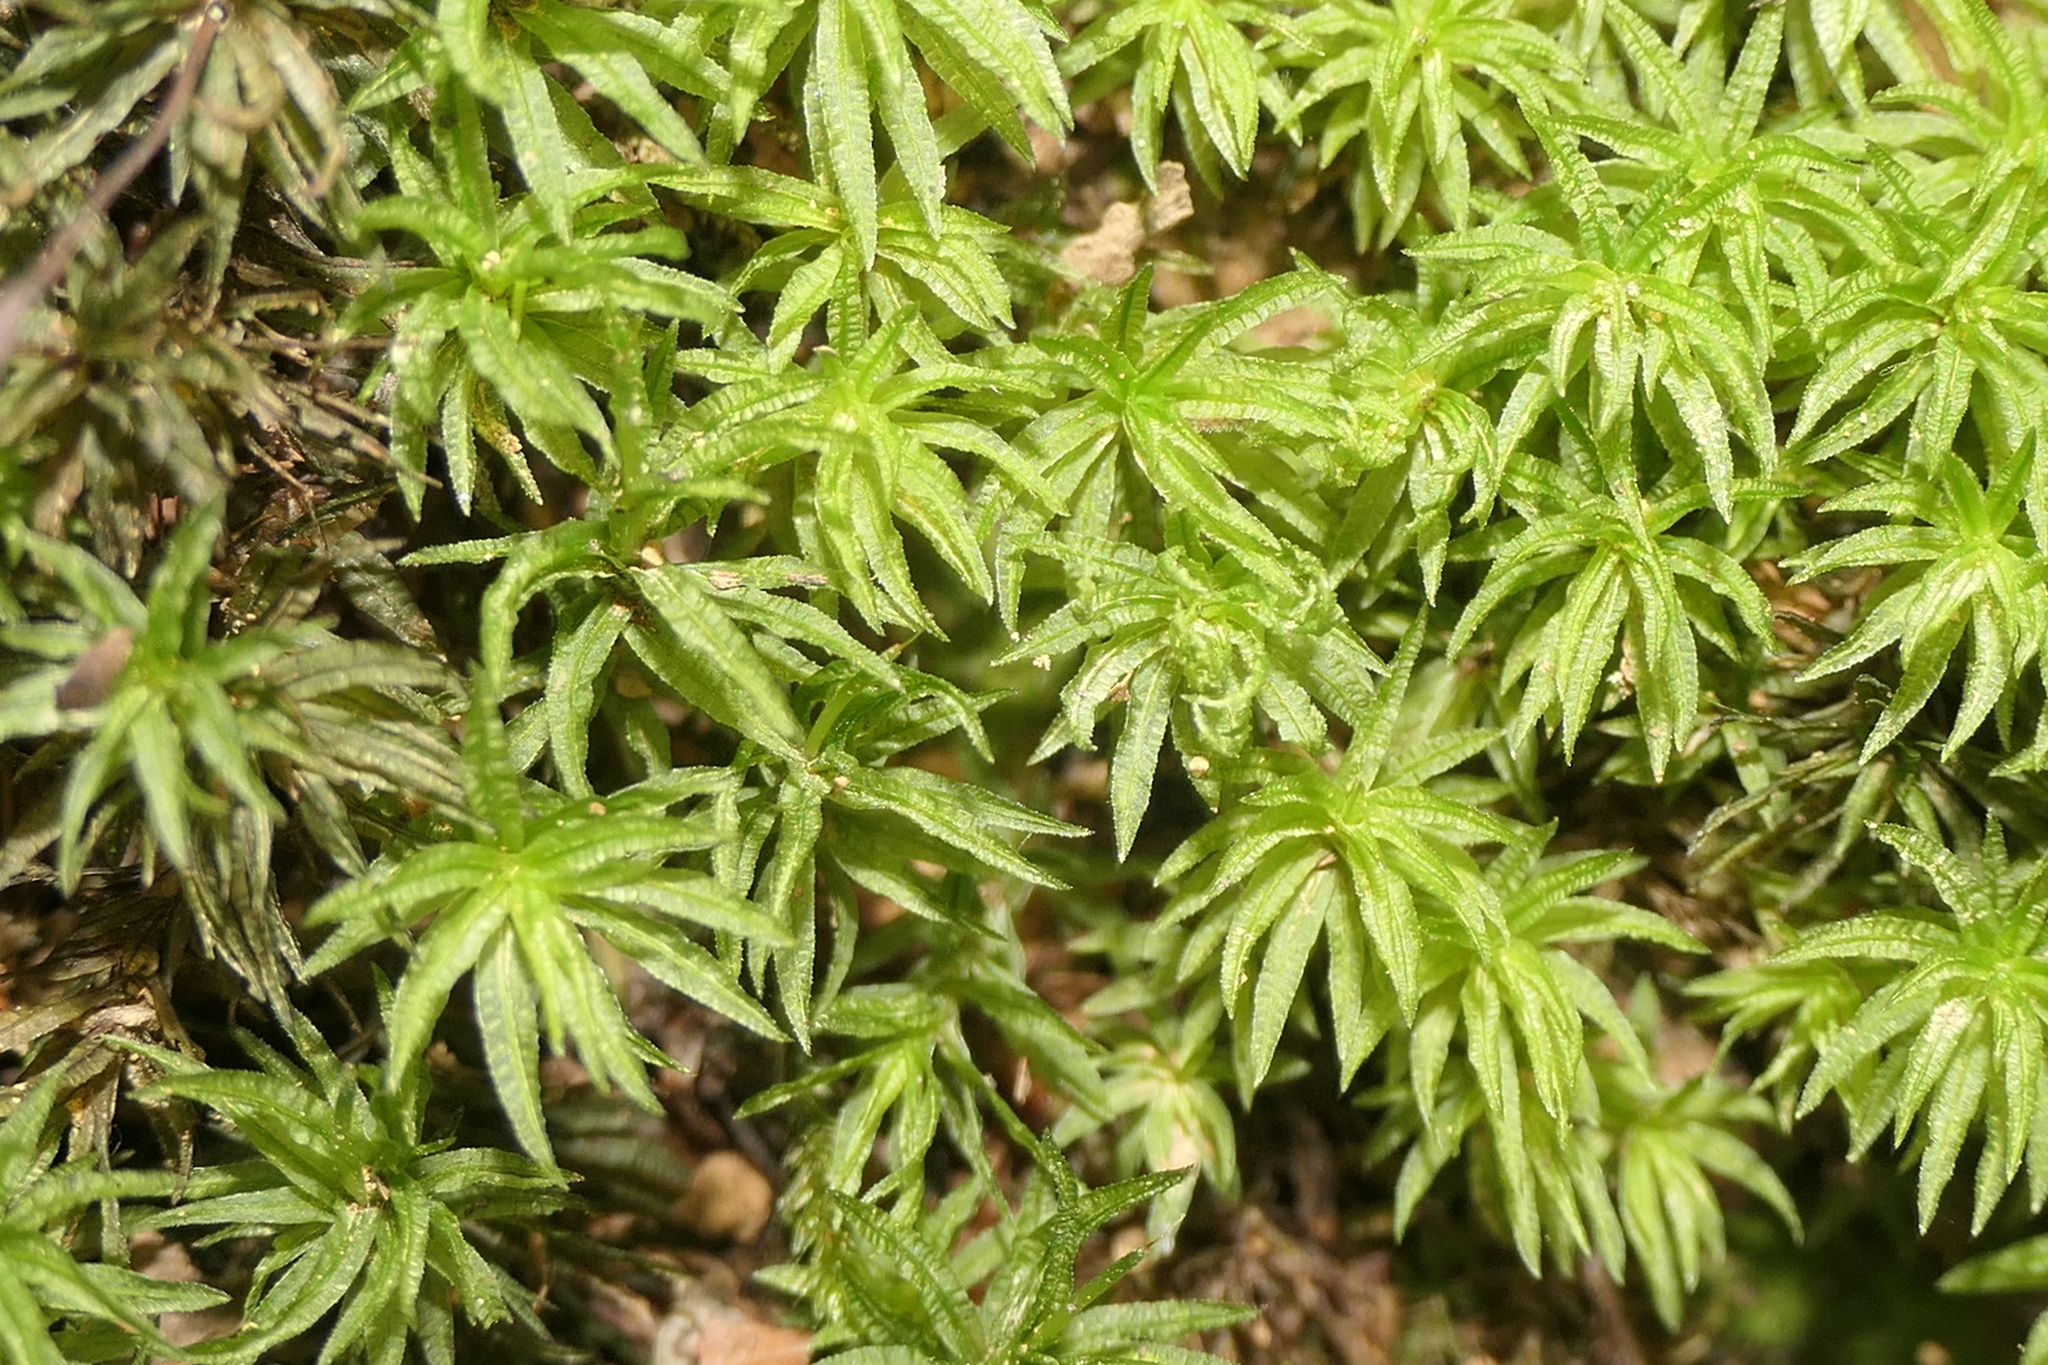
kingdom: Plantae
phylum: Bryophyta
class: Polytrichopsida
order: Polytrichales
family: Polytrichaceae
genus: Atrichum
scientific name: Atrichum undulatum
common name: Common smoothcap
